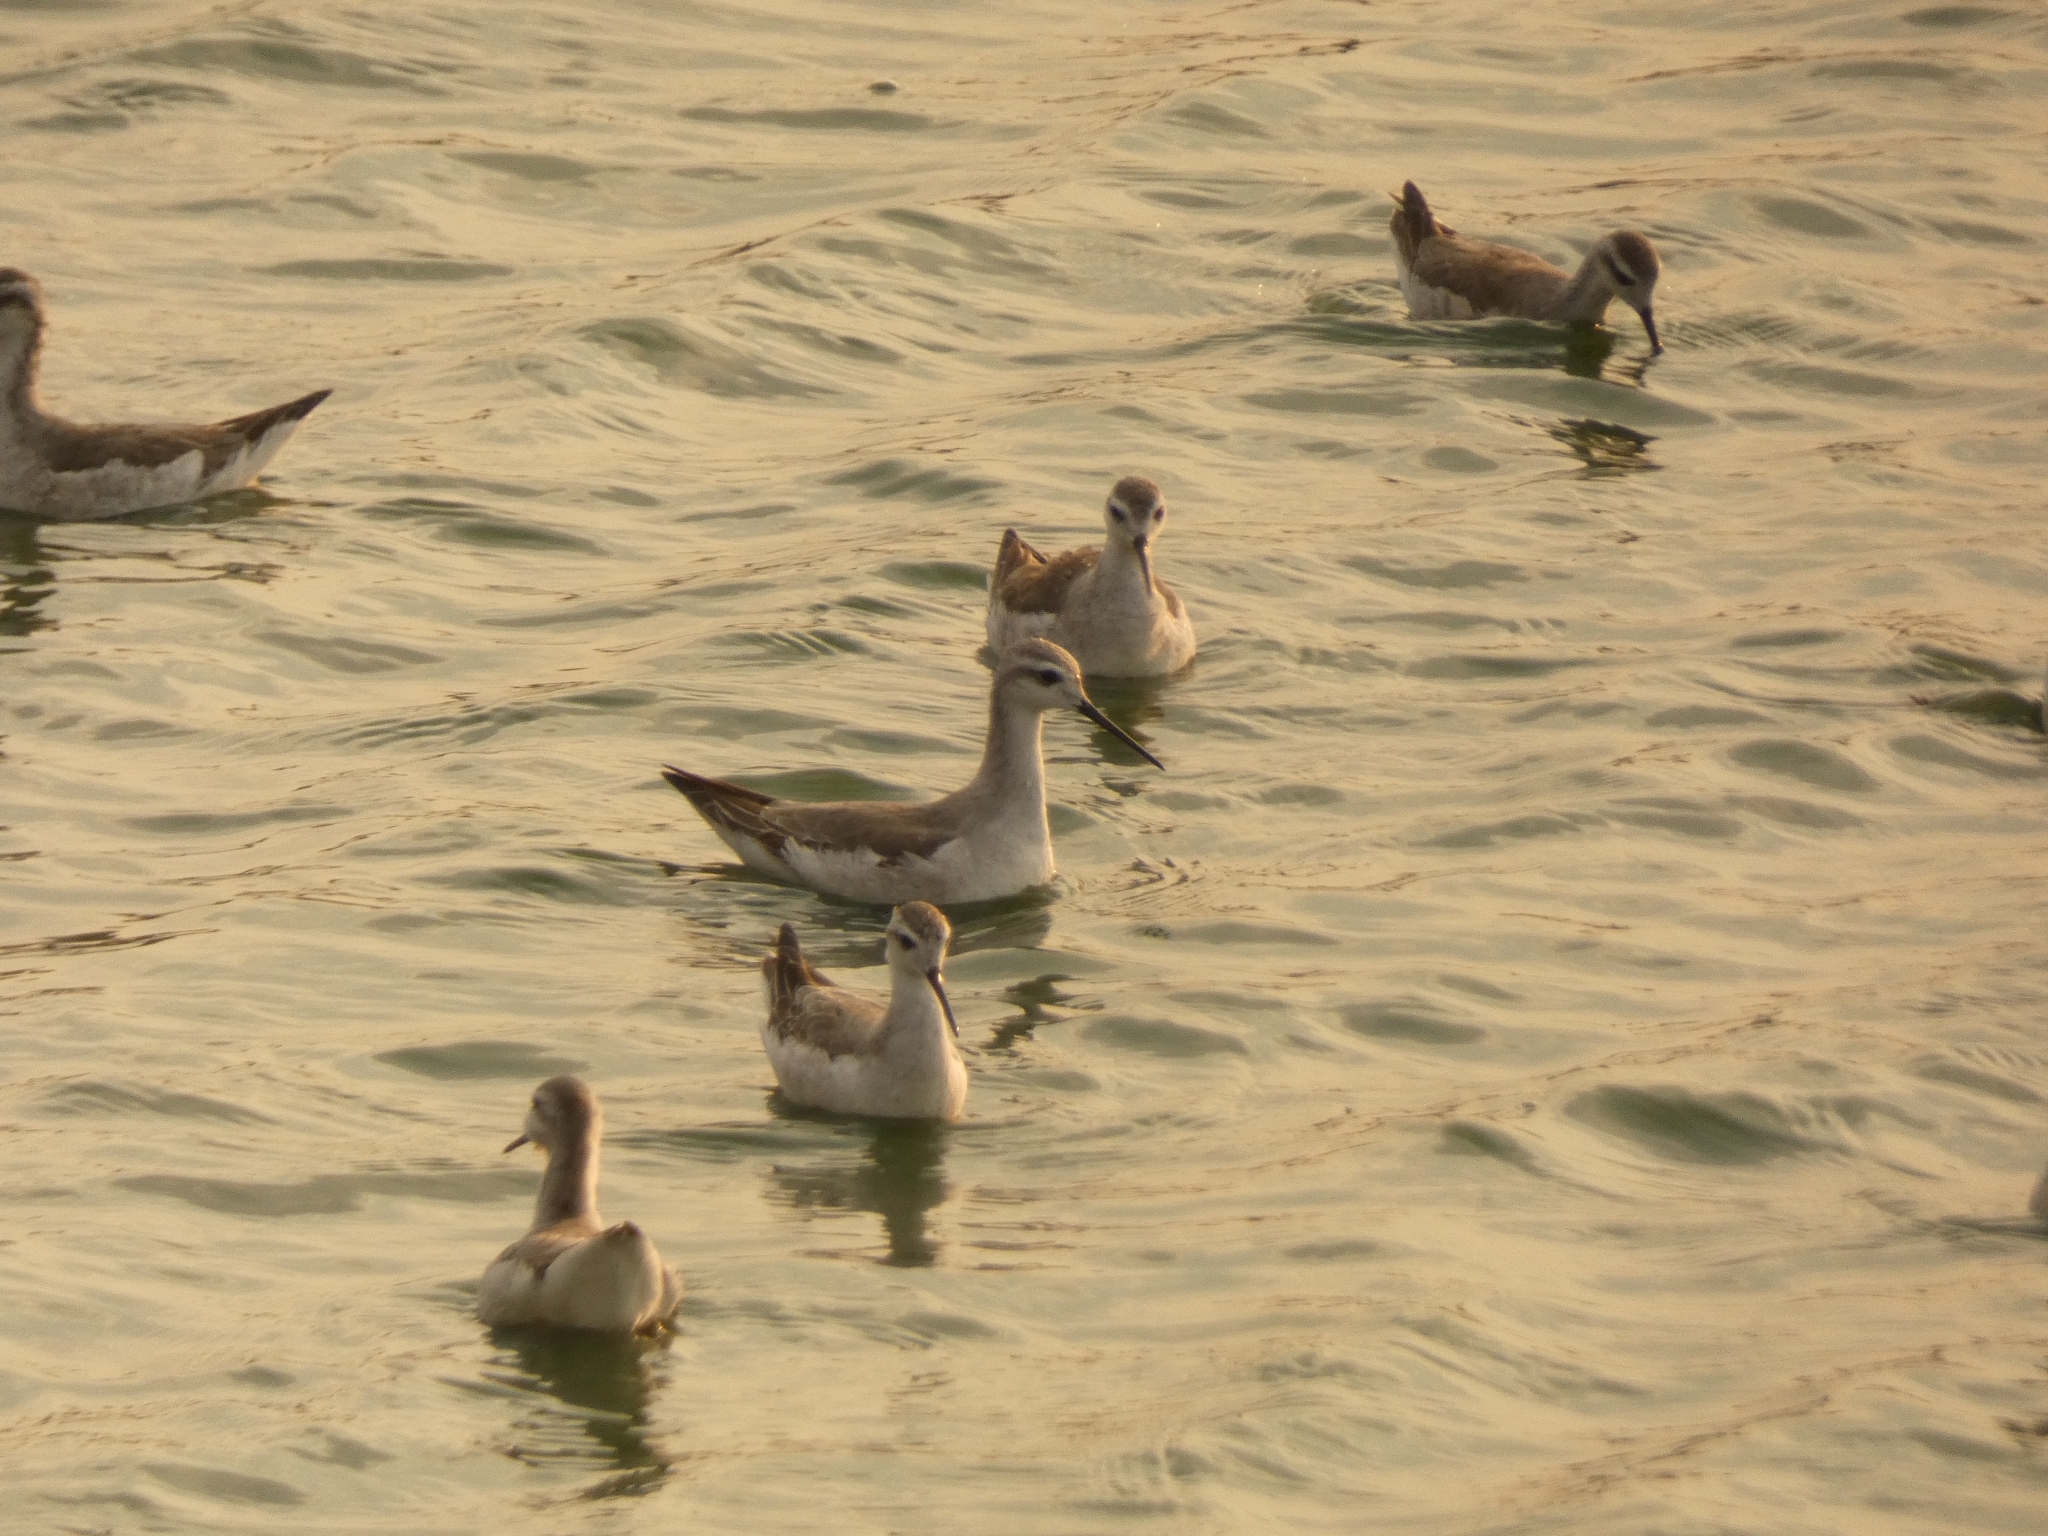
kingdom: Animalia
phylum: Chordata
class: Aves
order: Charadriiformes
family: Scolopacidae
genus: Phalaropus
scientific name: Phalaropus tricolor
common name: Wilson's phalarope
